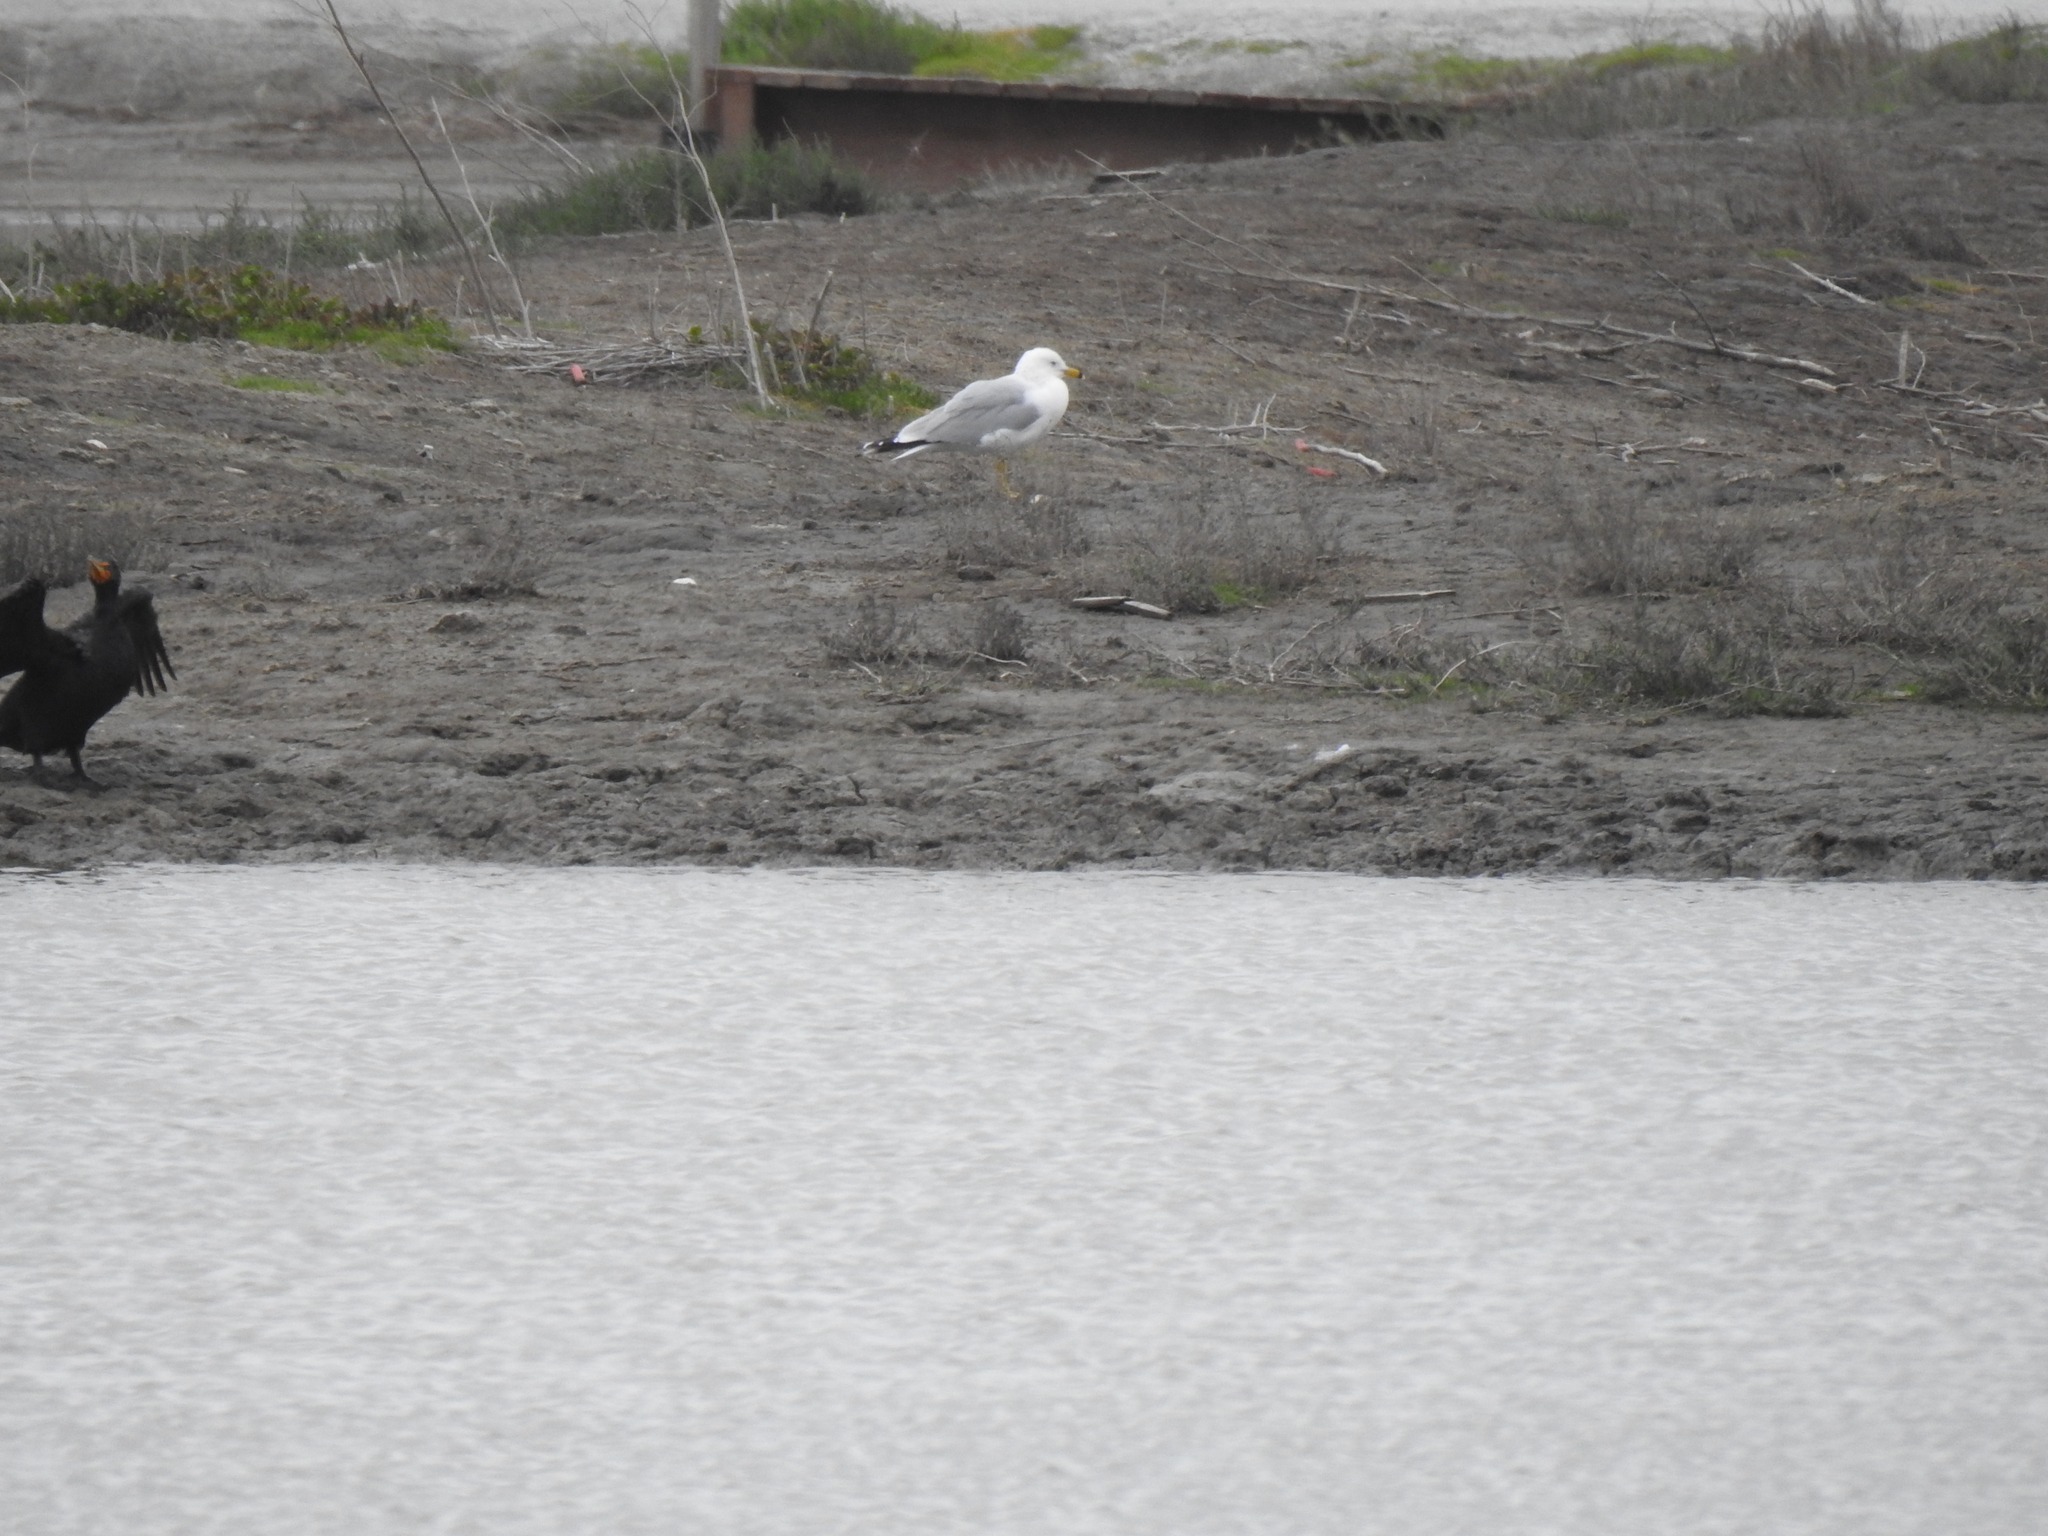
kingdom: Animalia
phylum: Chordata
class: Aves
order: Charadriiformes
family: Laridae
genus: Larus
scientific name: Larus delawarensis
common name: Ring-billed gull
